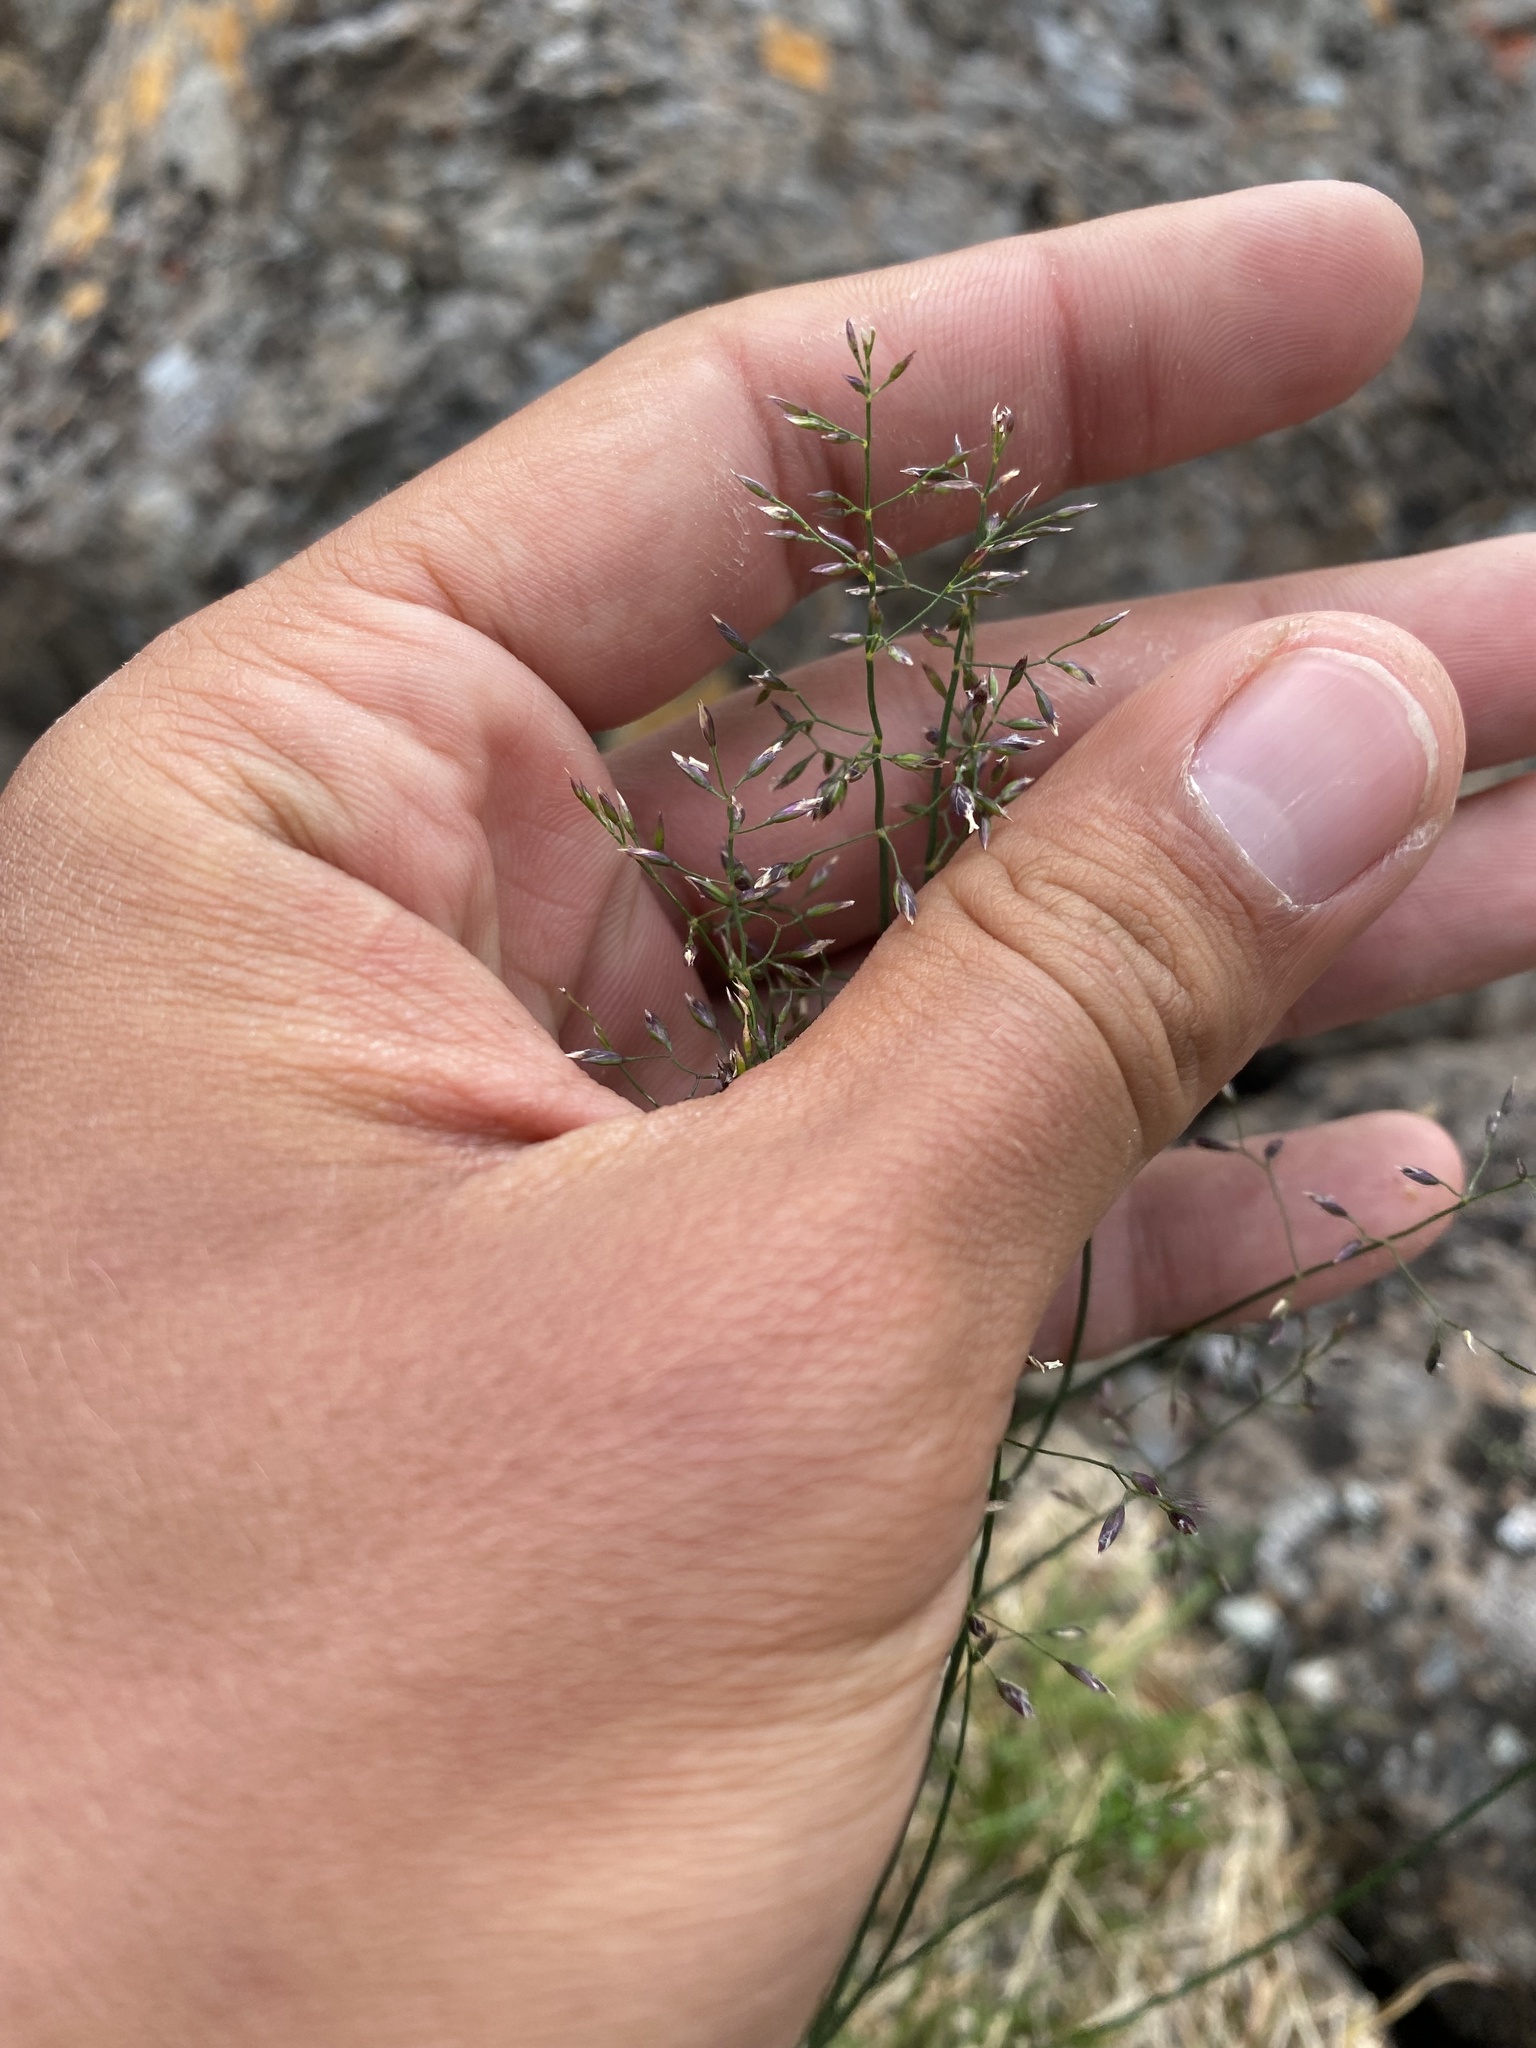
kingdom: Plantae
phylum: Tracheophyta
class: Liliopsida
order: Poales
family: Poaceae
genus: Poa
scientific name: Poa glauca
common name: Glaucous bluegrass
